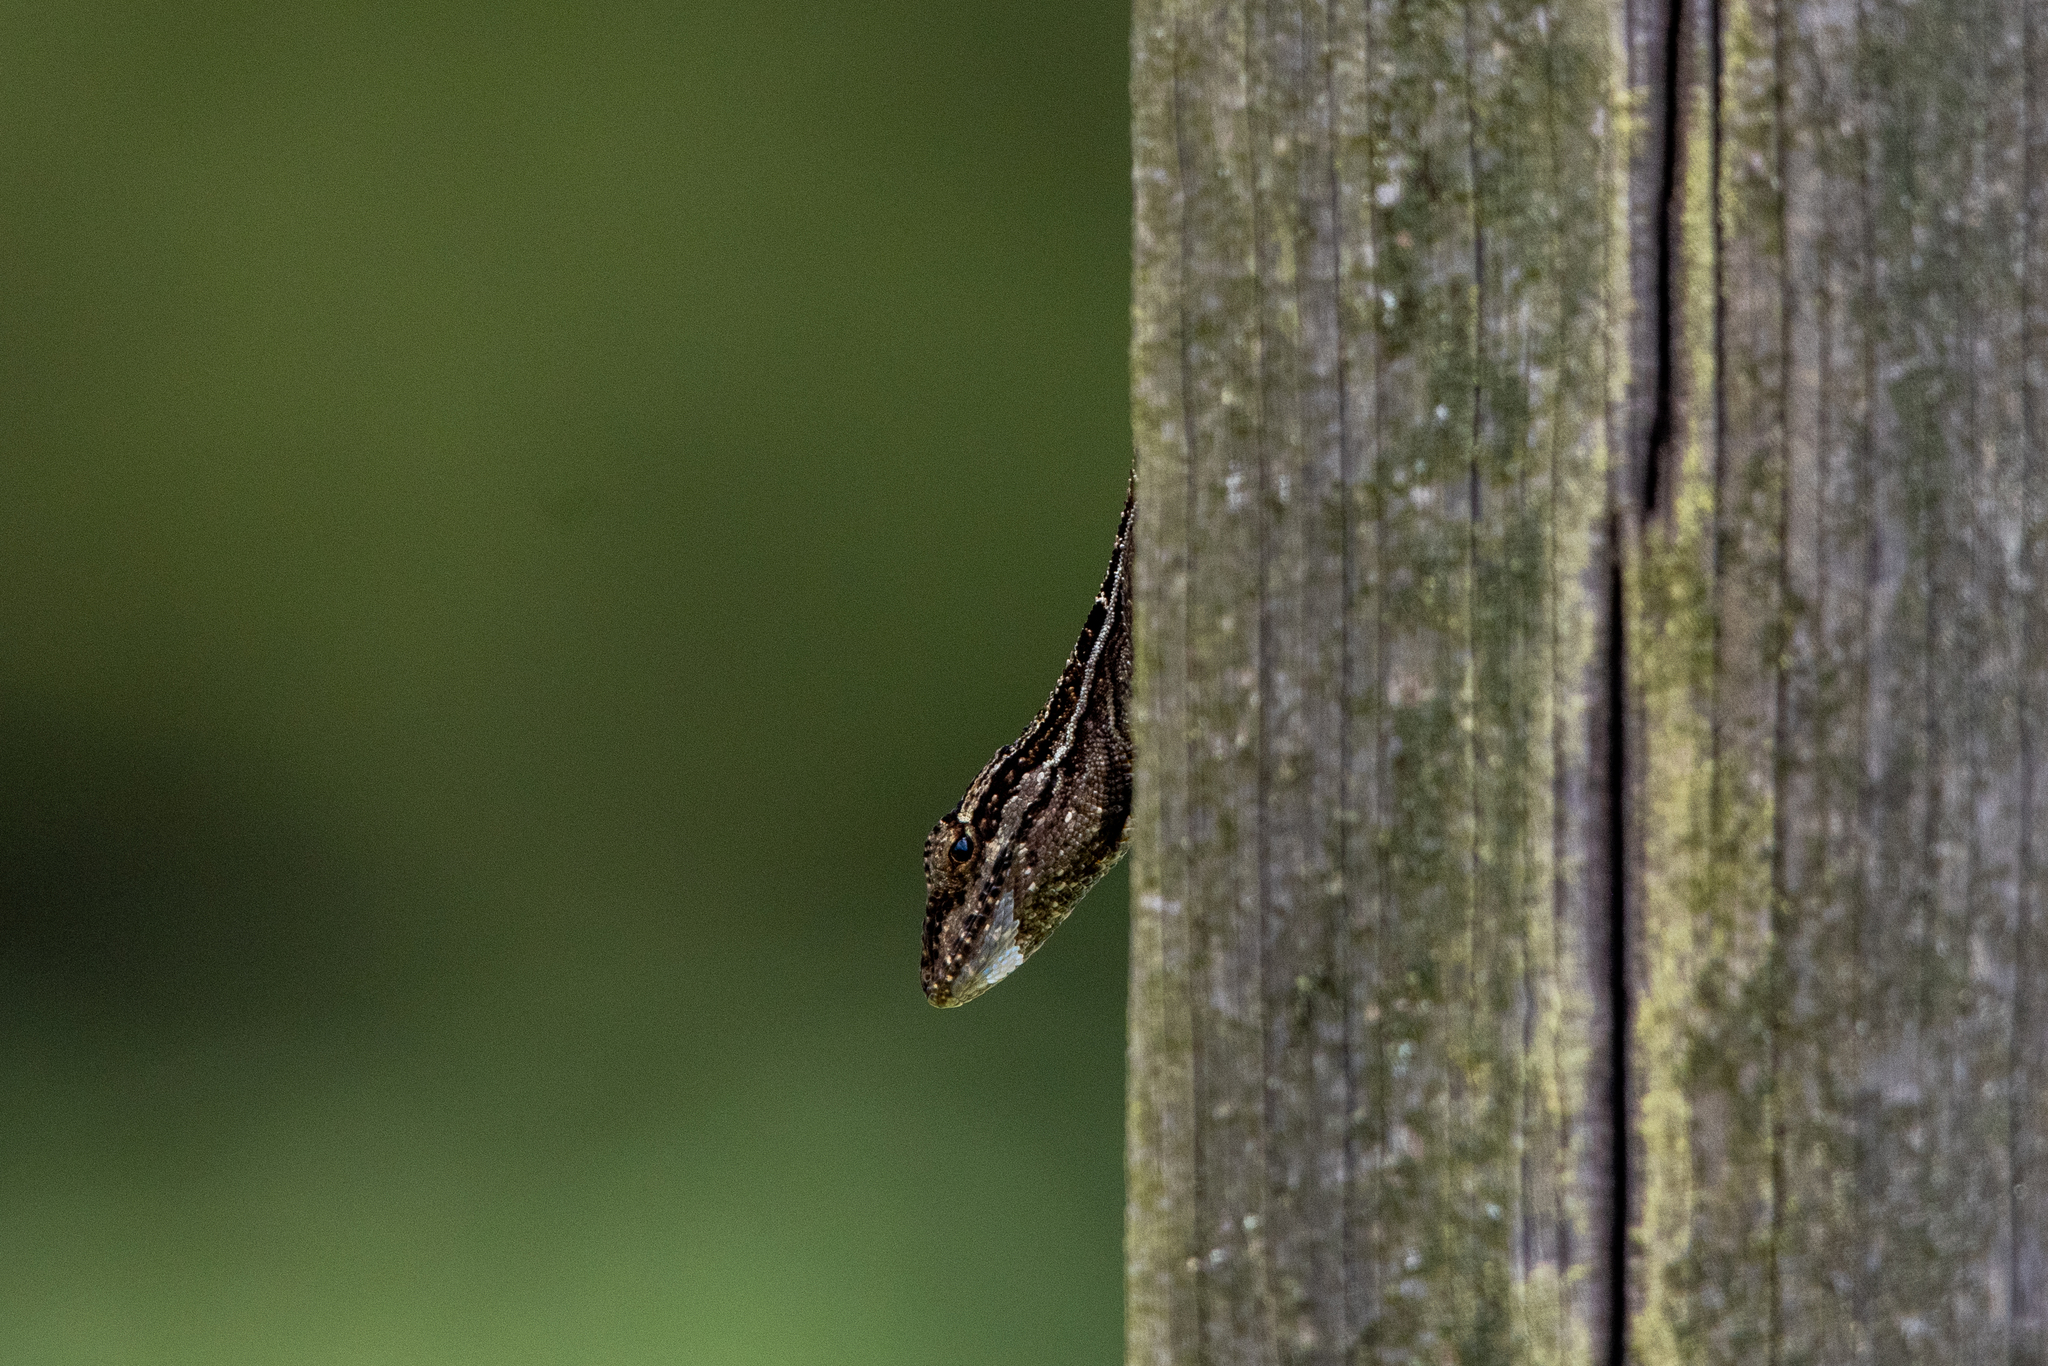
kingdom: Animalia
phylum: Chordata
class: Squamata
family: Dactyloidae
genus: Anolis
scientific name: Anolis caceresae
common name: Berta’s anole
